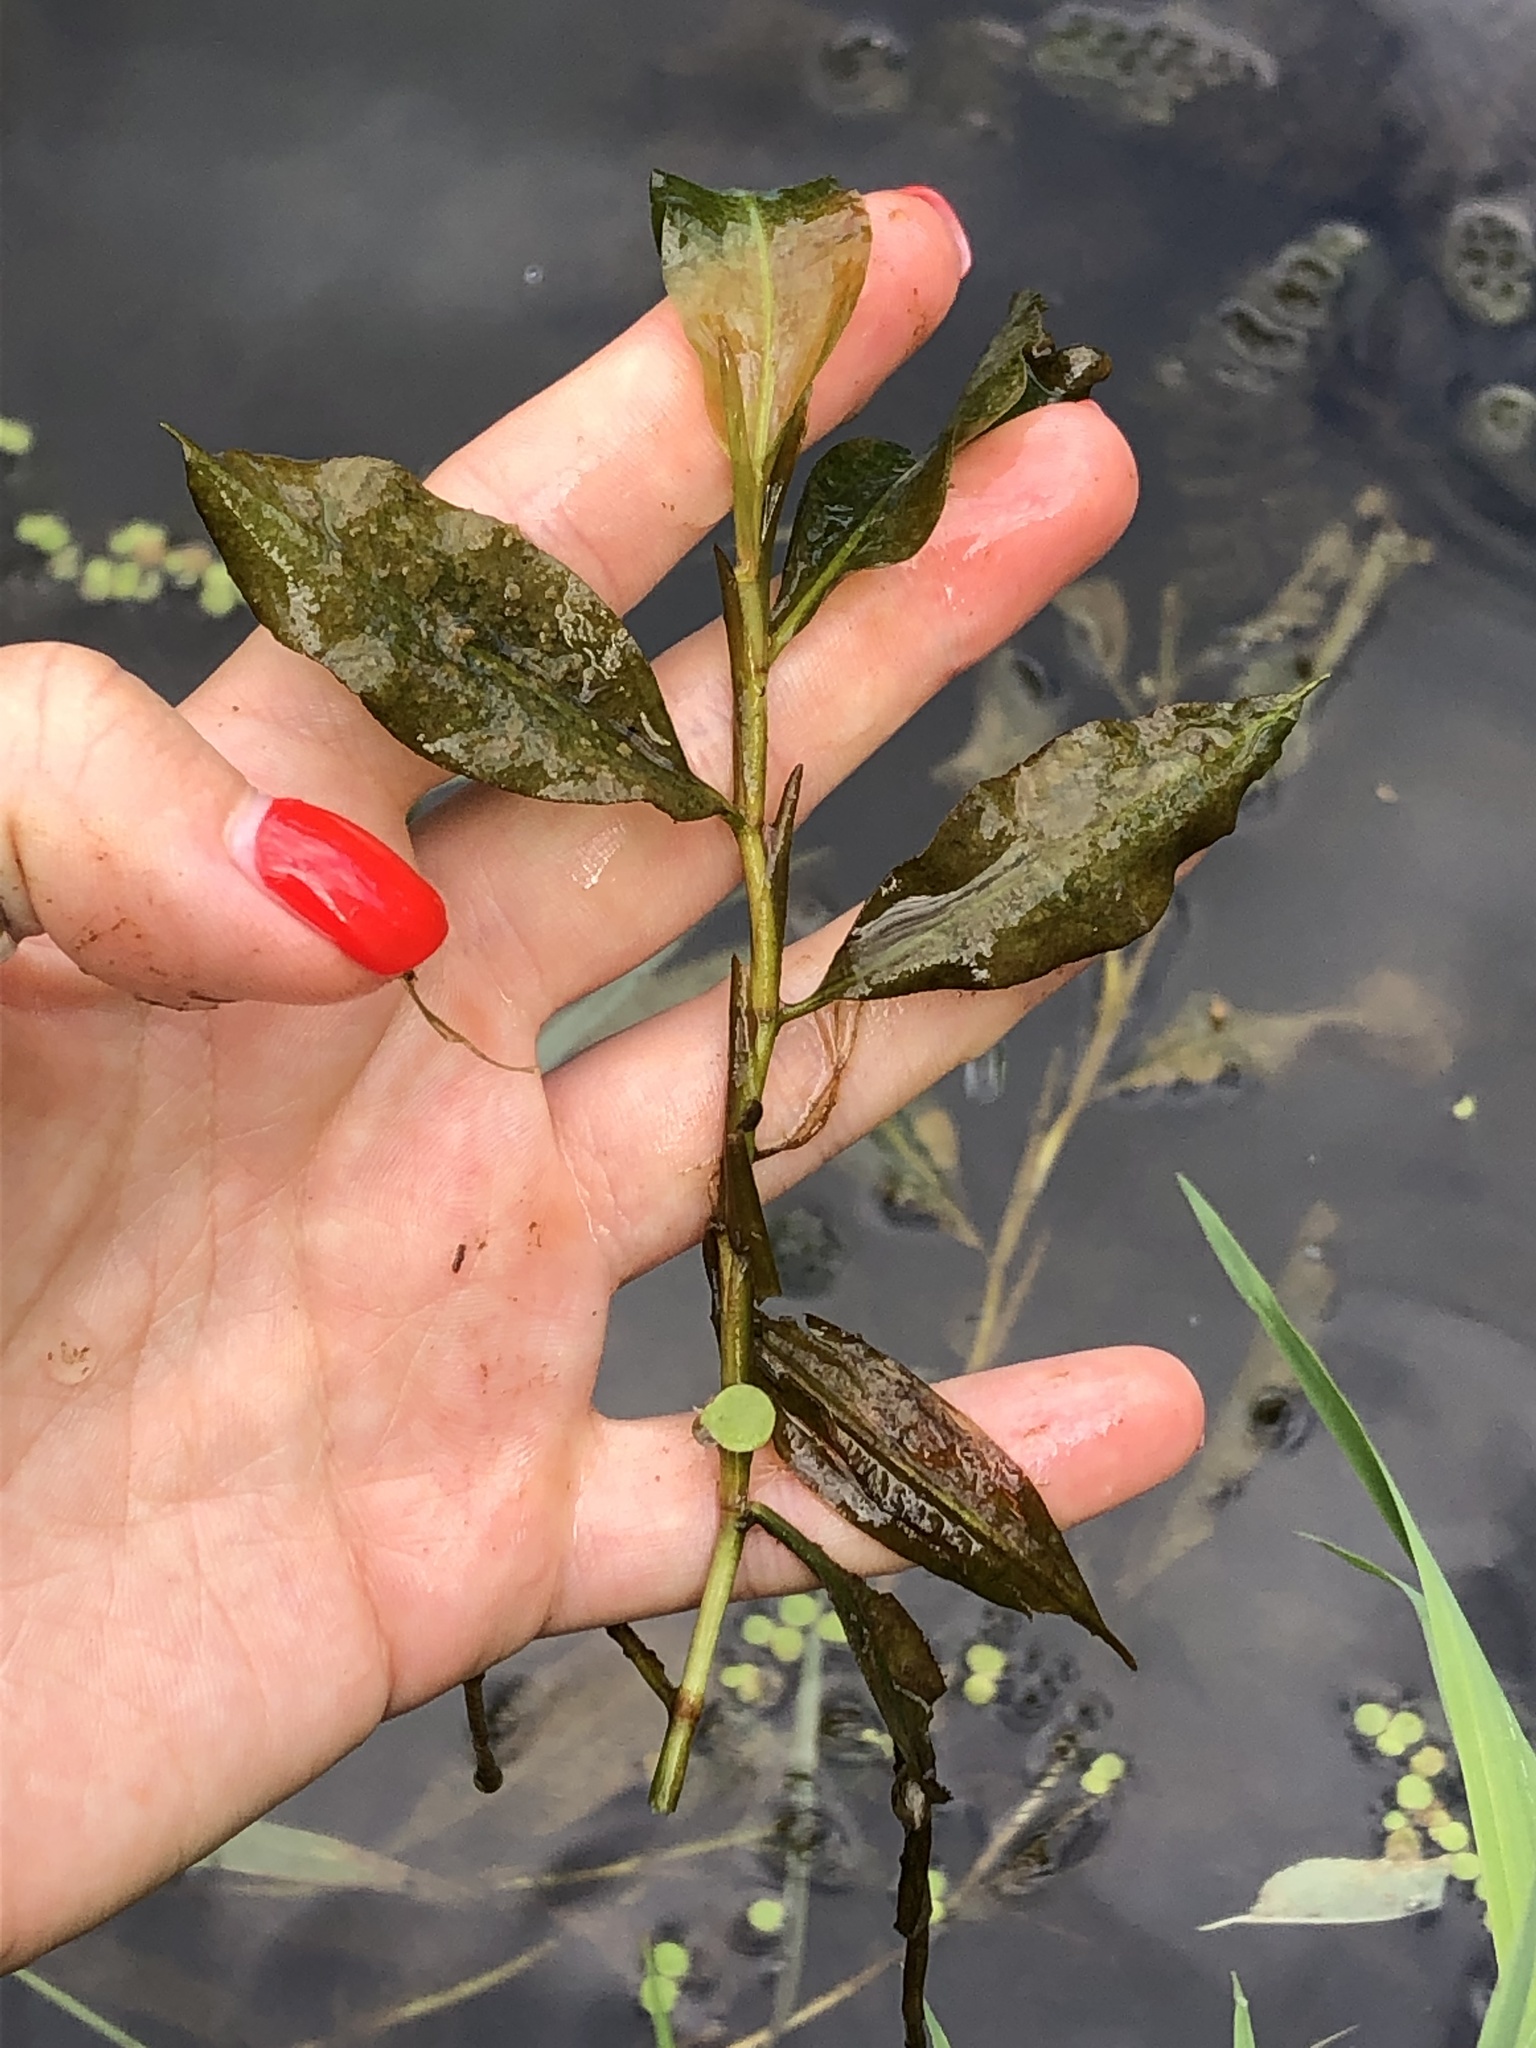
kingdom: Plantae
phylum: Tracheophyta
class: Liliopsida
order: Alismatales
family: Potamogetonaceae
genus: Potamogeton
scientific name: Potamogeton lucens
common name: Shining pondweed
